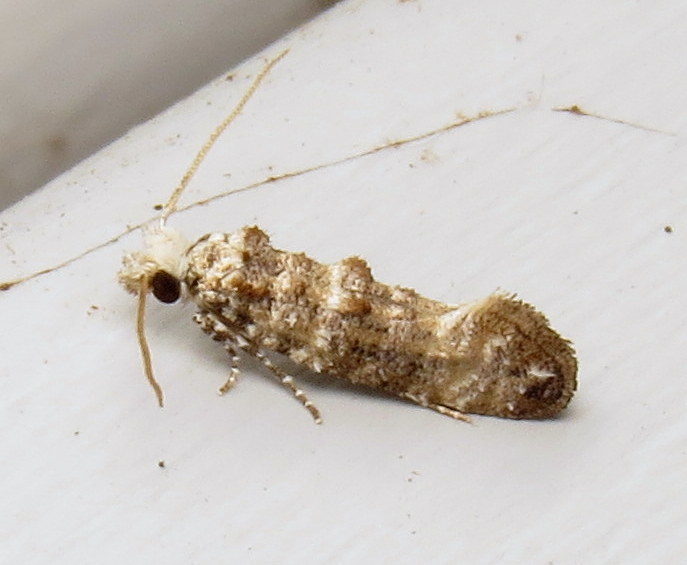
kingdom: Animalia
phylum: Arthropoda
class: Insecta
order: Lepidoptera
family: Tineidae
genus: Xylesthia
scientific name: Xylesthia pruniramiella
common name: Clemens' bark moth
